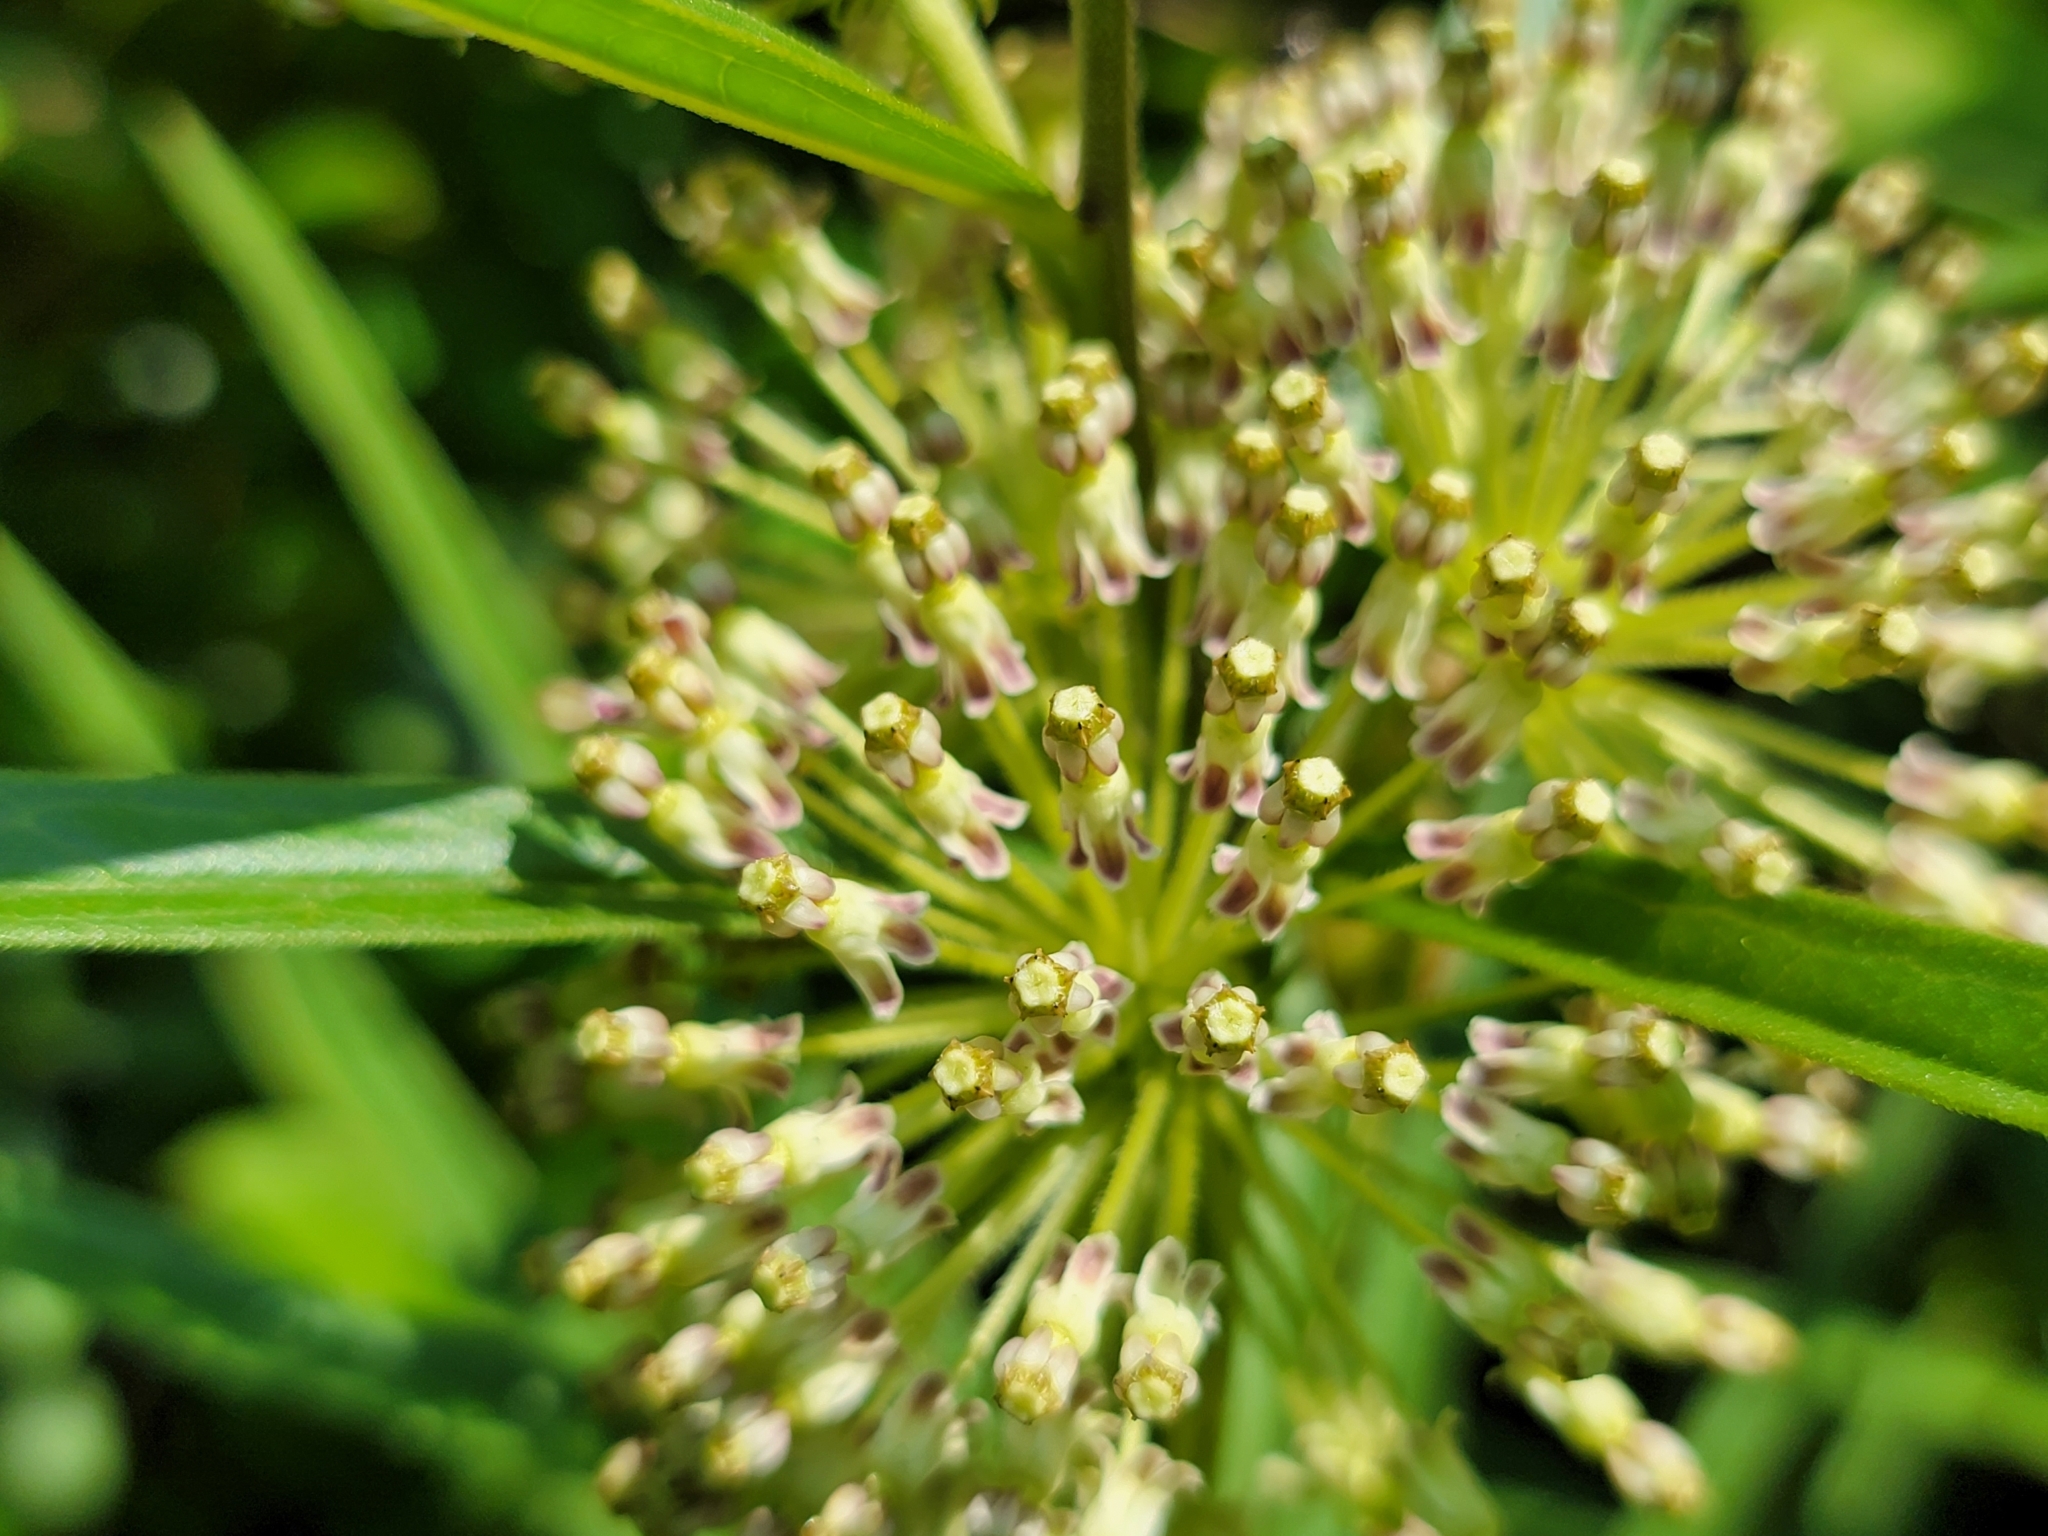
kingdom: Plantae
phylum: Tracheophyta
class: Magnoliopsida
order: Gentianales
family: Apocynaceae
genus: Asclepias
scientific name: Asclepias hirtella
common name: Prairie milkweed
